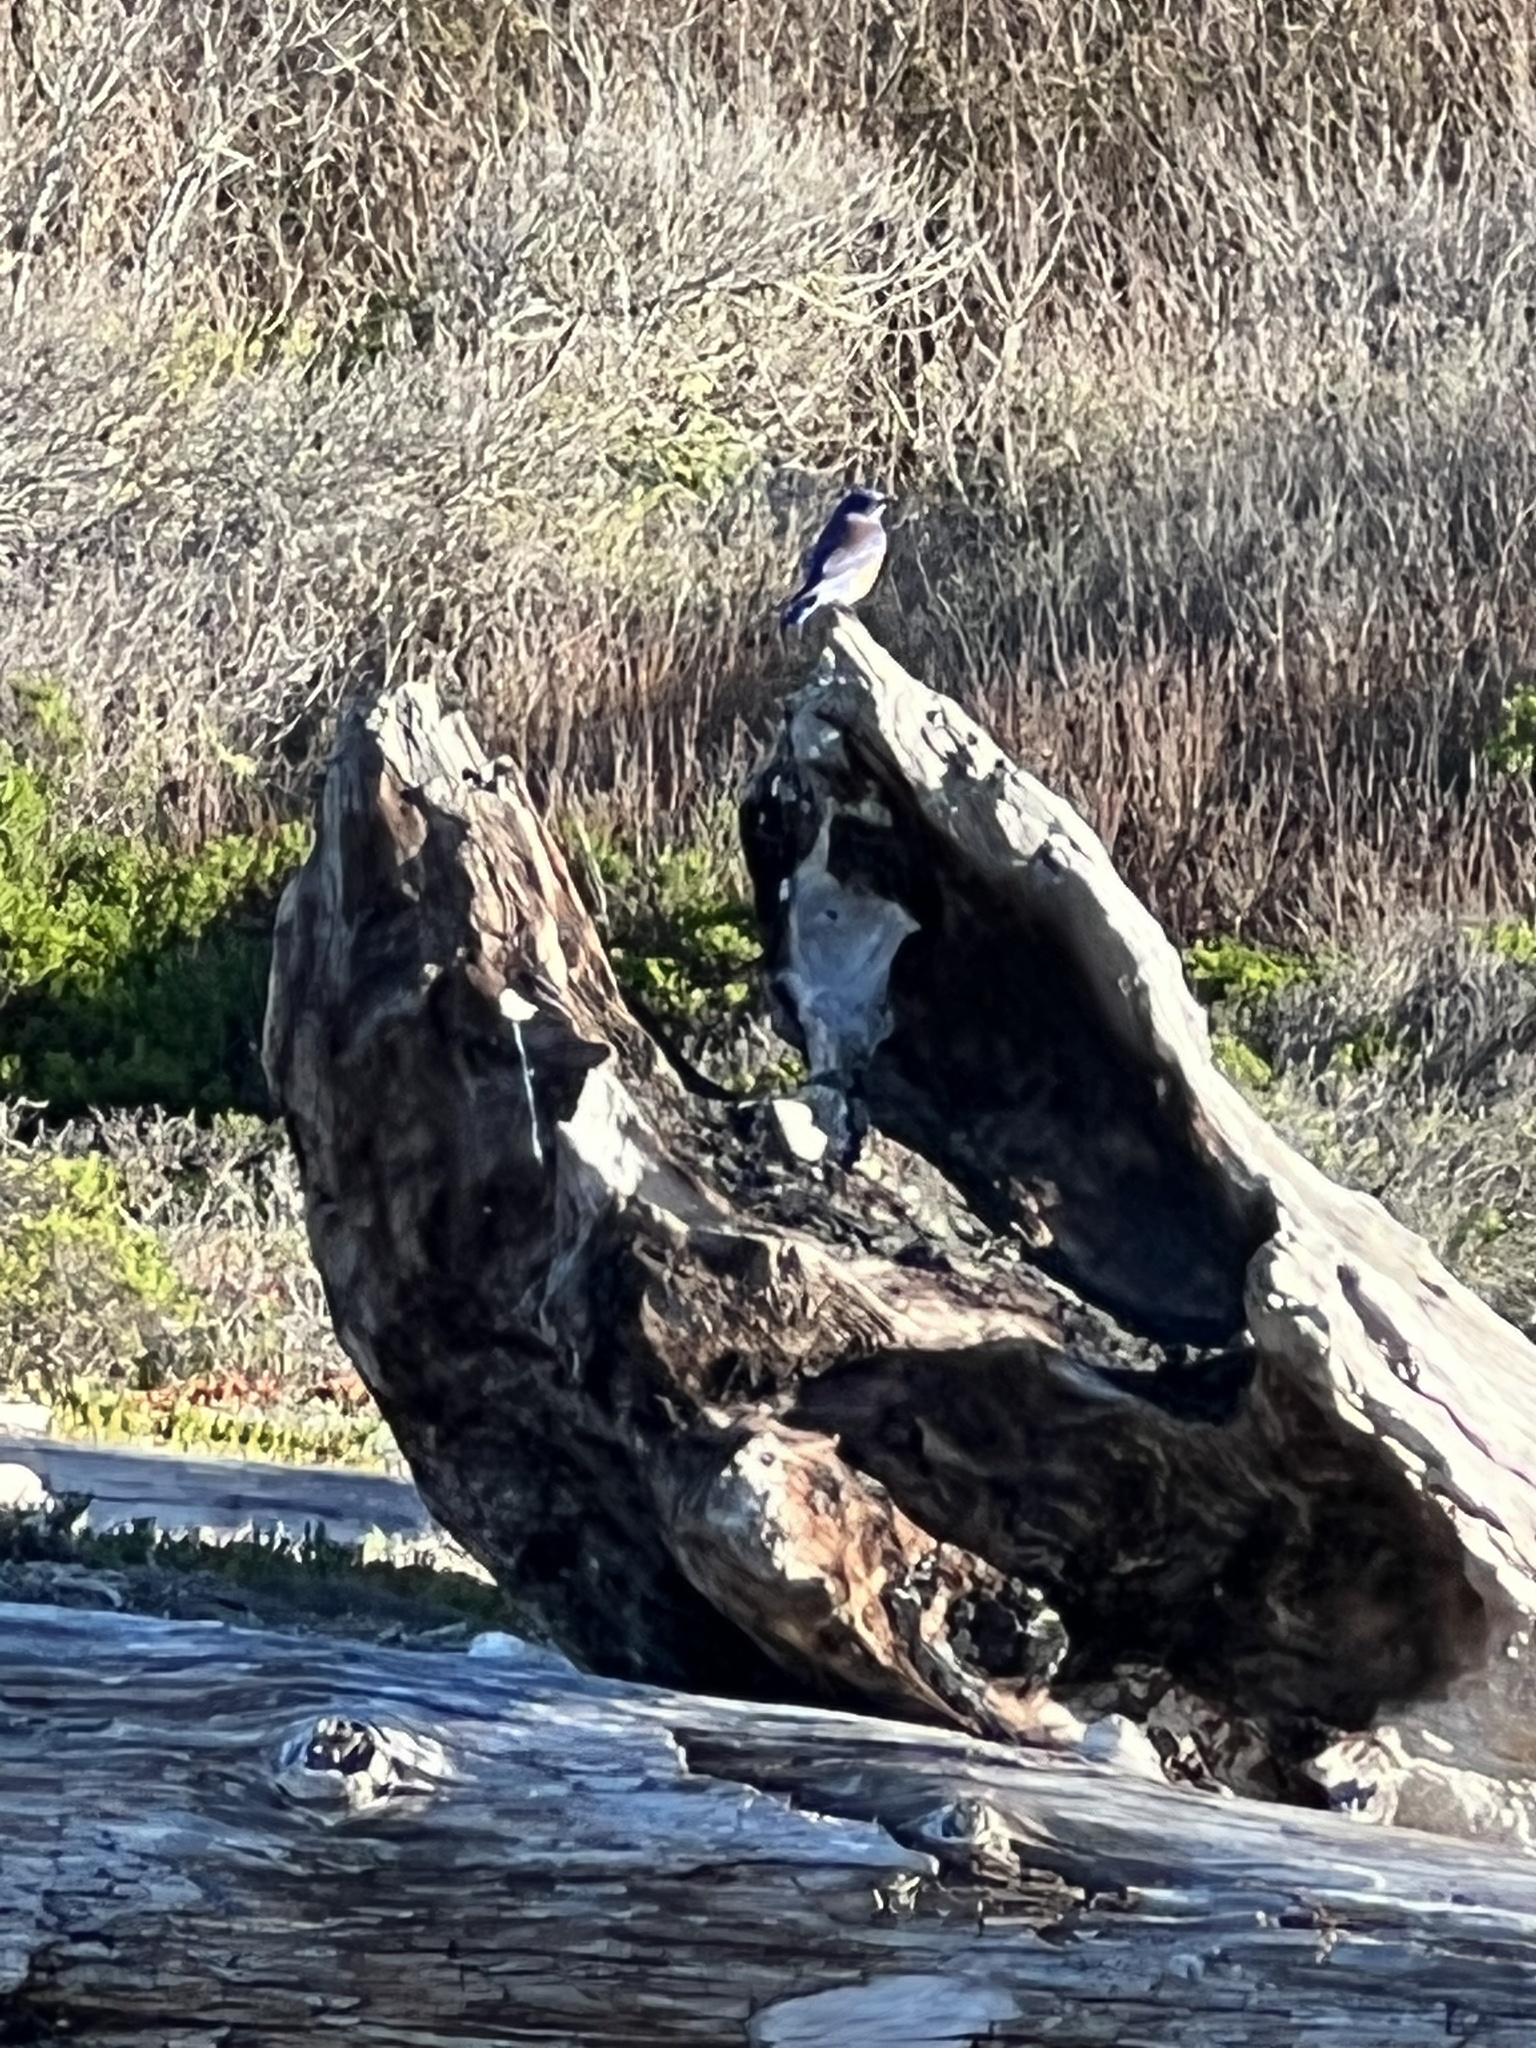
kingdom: Animalia
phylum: Chordata
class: Aves
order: Passeriformes
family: Turdidae
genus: Sialia
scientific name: Sialia mexicana
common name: Western bluebird
